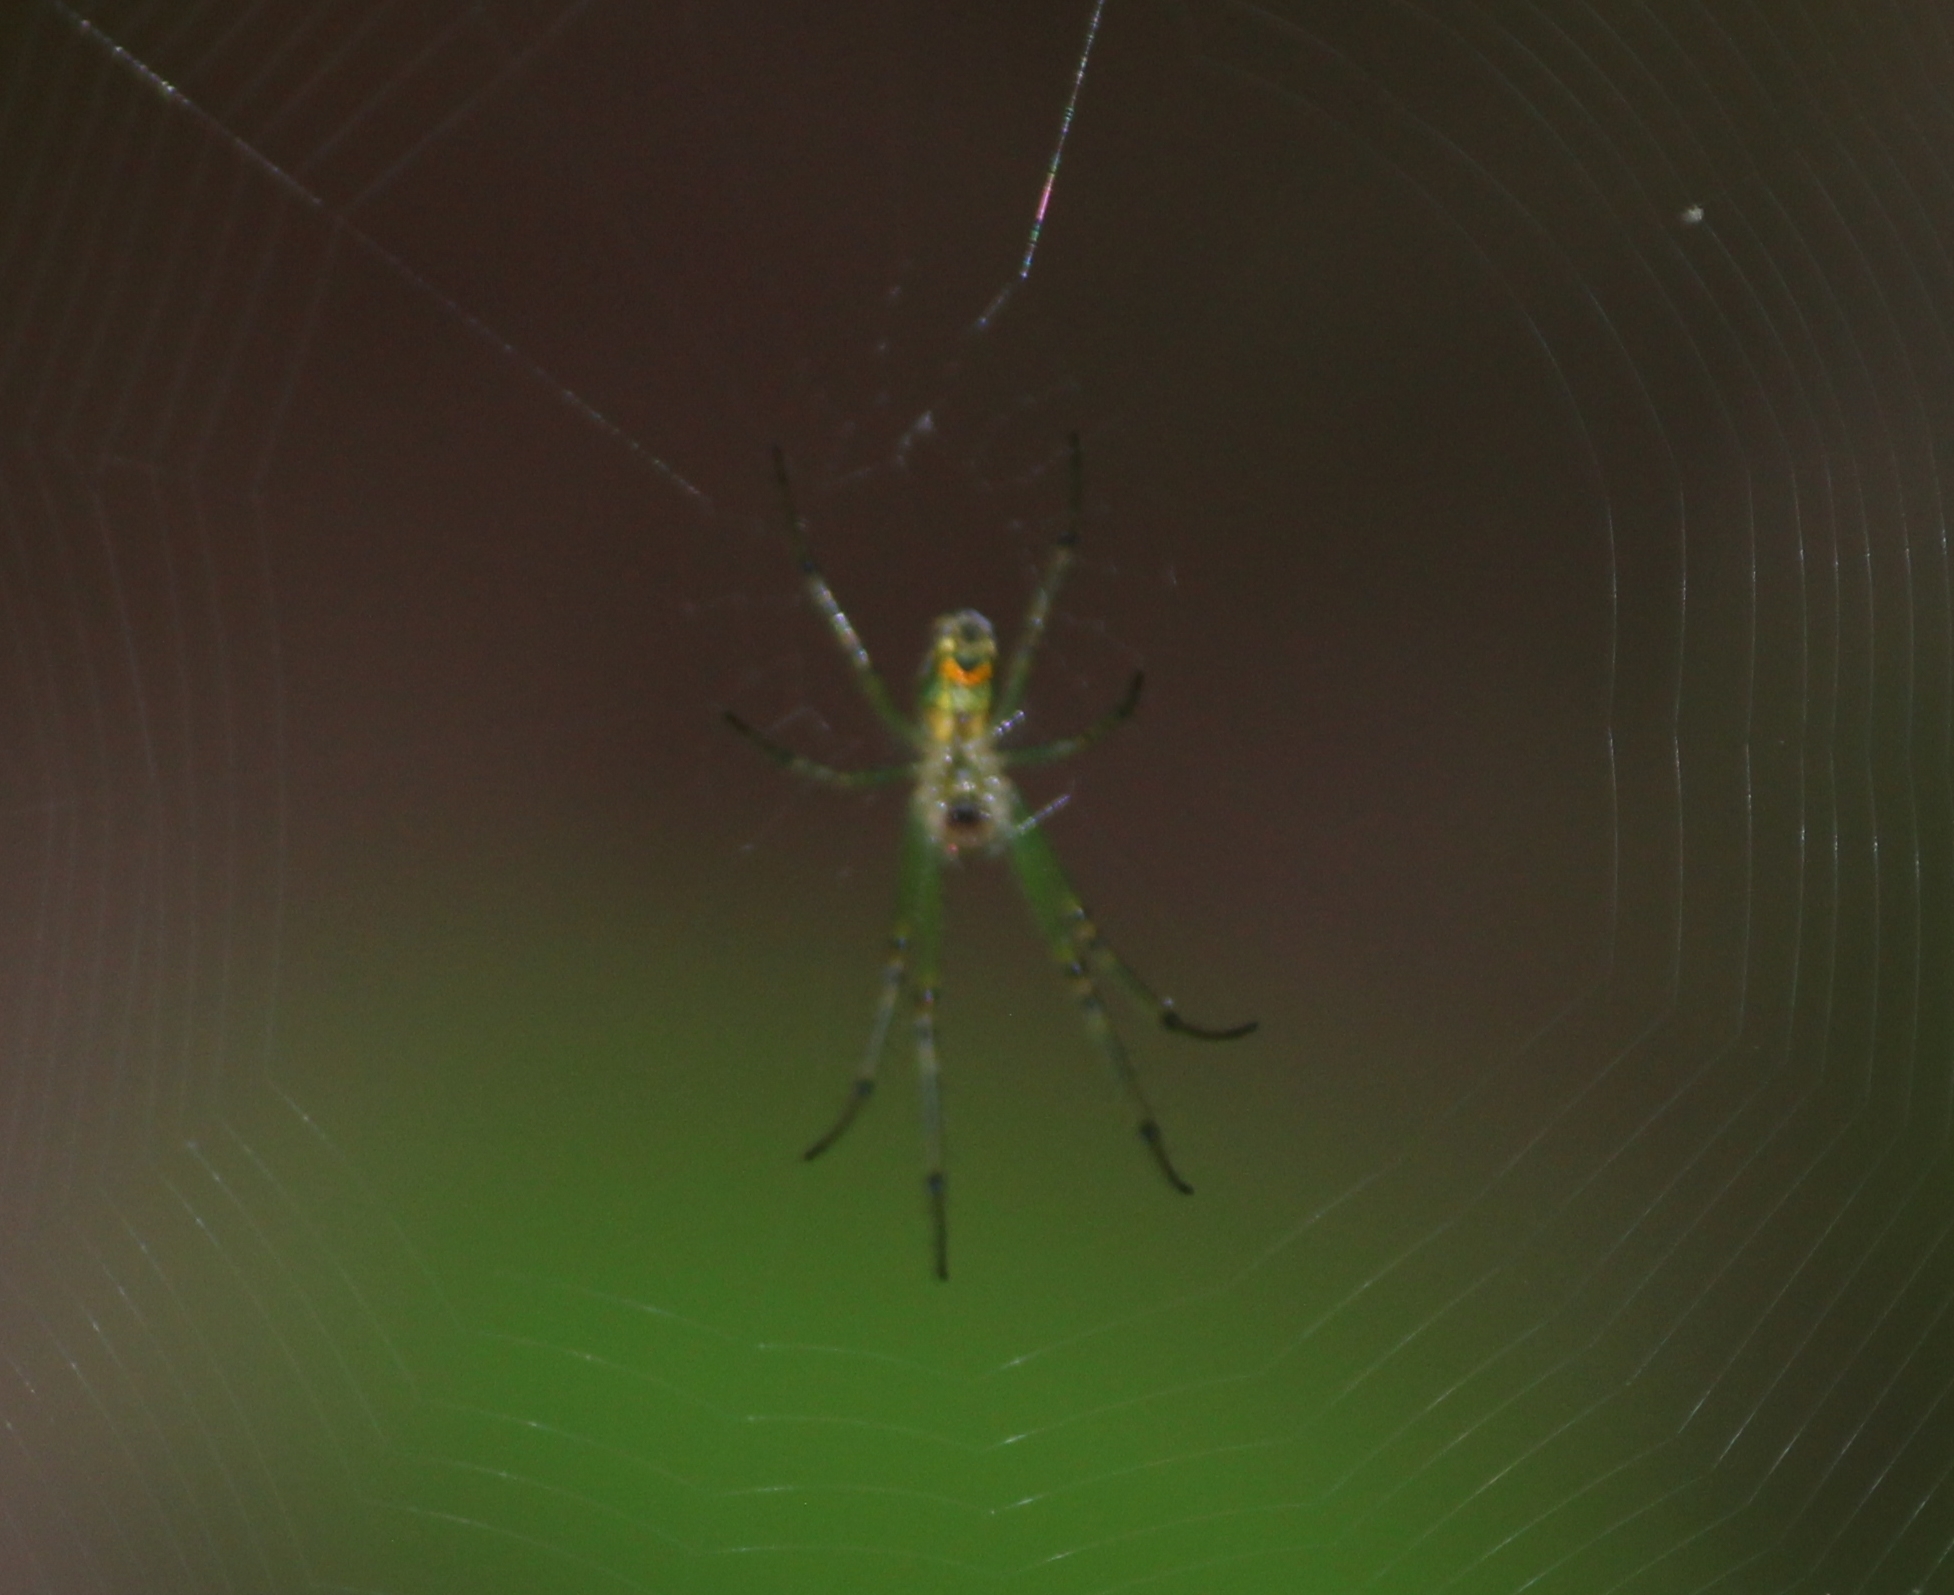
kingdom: Animalia
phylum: Arthropoda
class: Arachnida
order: Araneae
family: Tetragnathidae
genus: Leucauge
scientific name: Leucauge venusta
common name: Longjawed orb weavers
